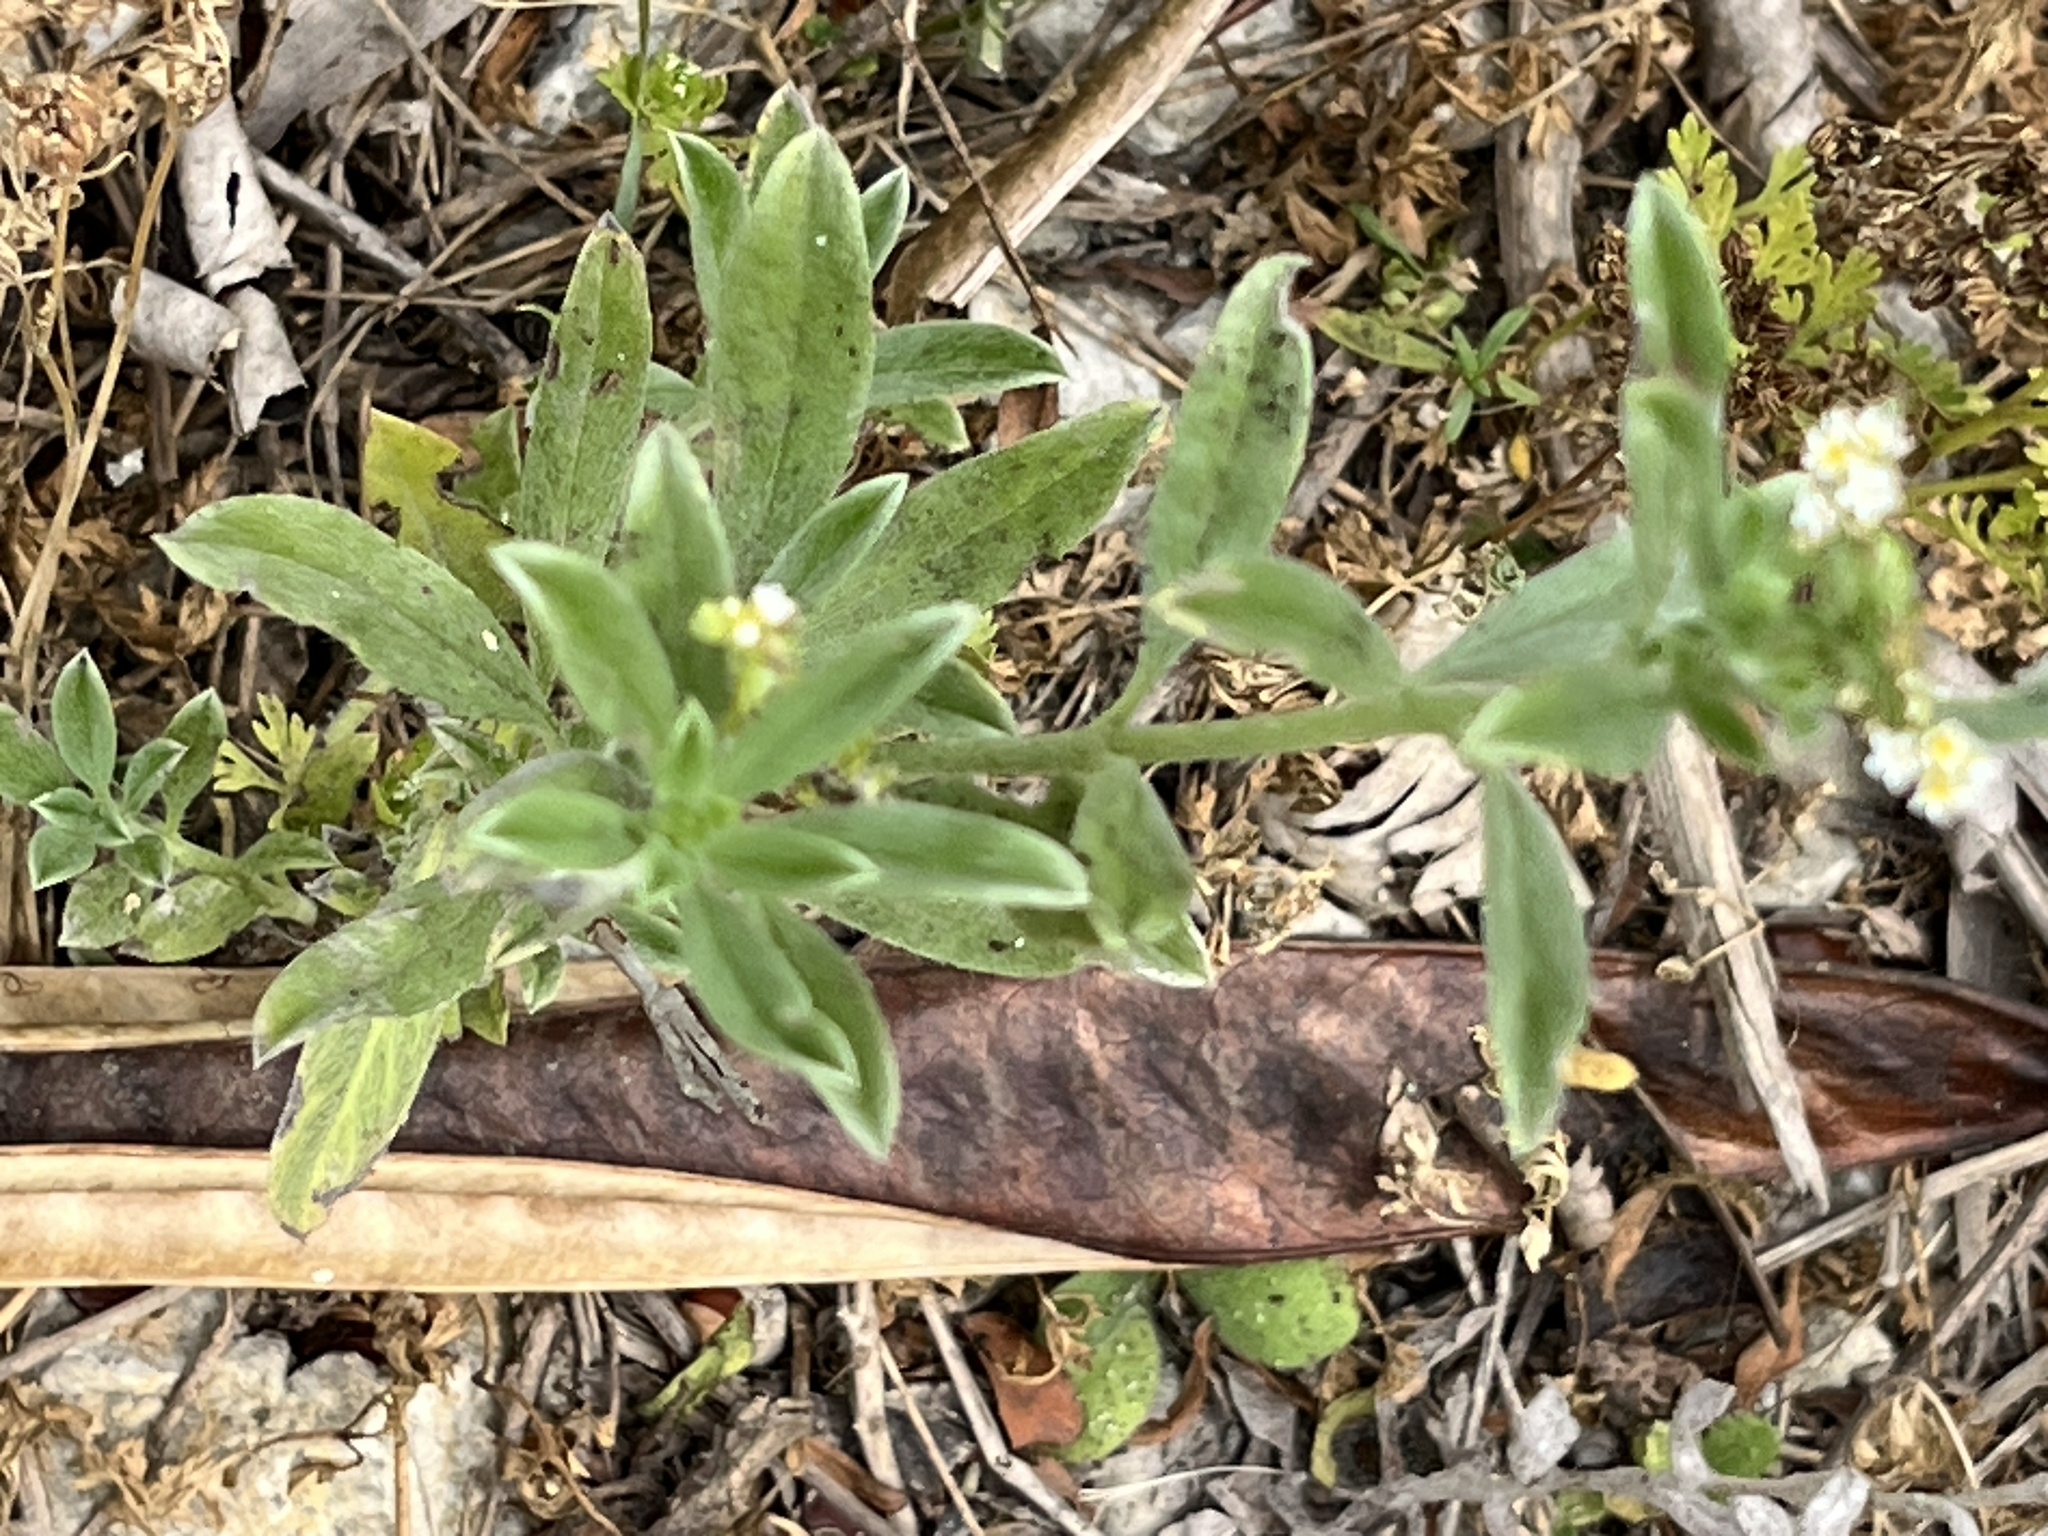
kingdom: Plantae
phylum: Tracheophyta
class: Magnoliopsida
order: Boraginales
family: Heliotropiaceae
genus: Euploca
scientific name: Euploca procumbens
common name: Fourspike heliotrope
